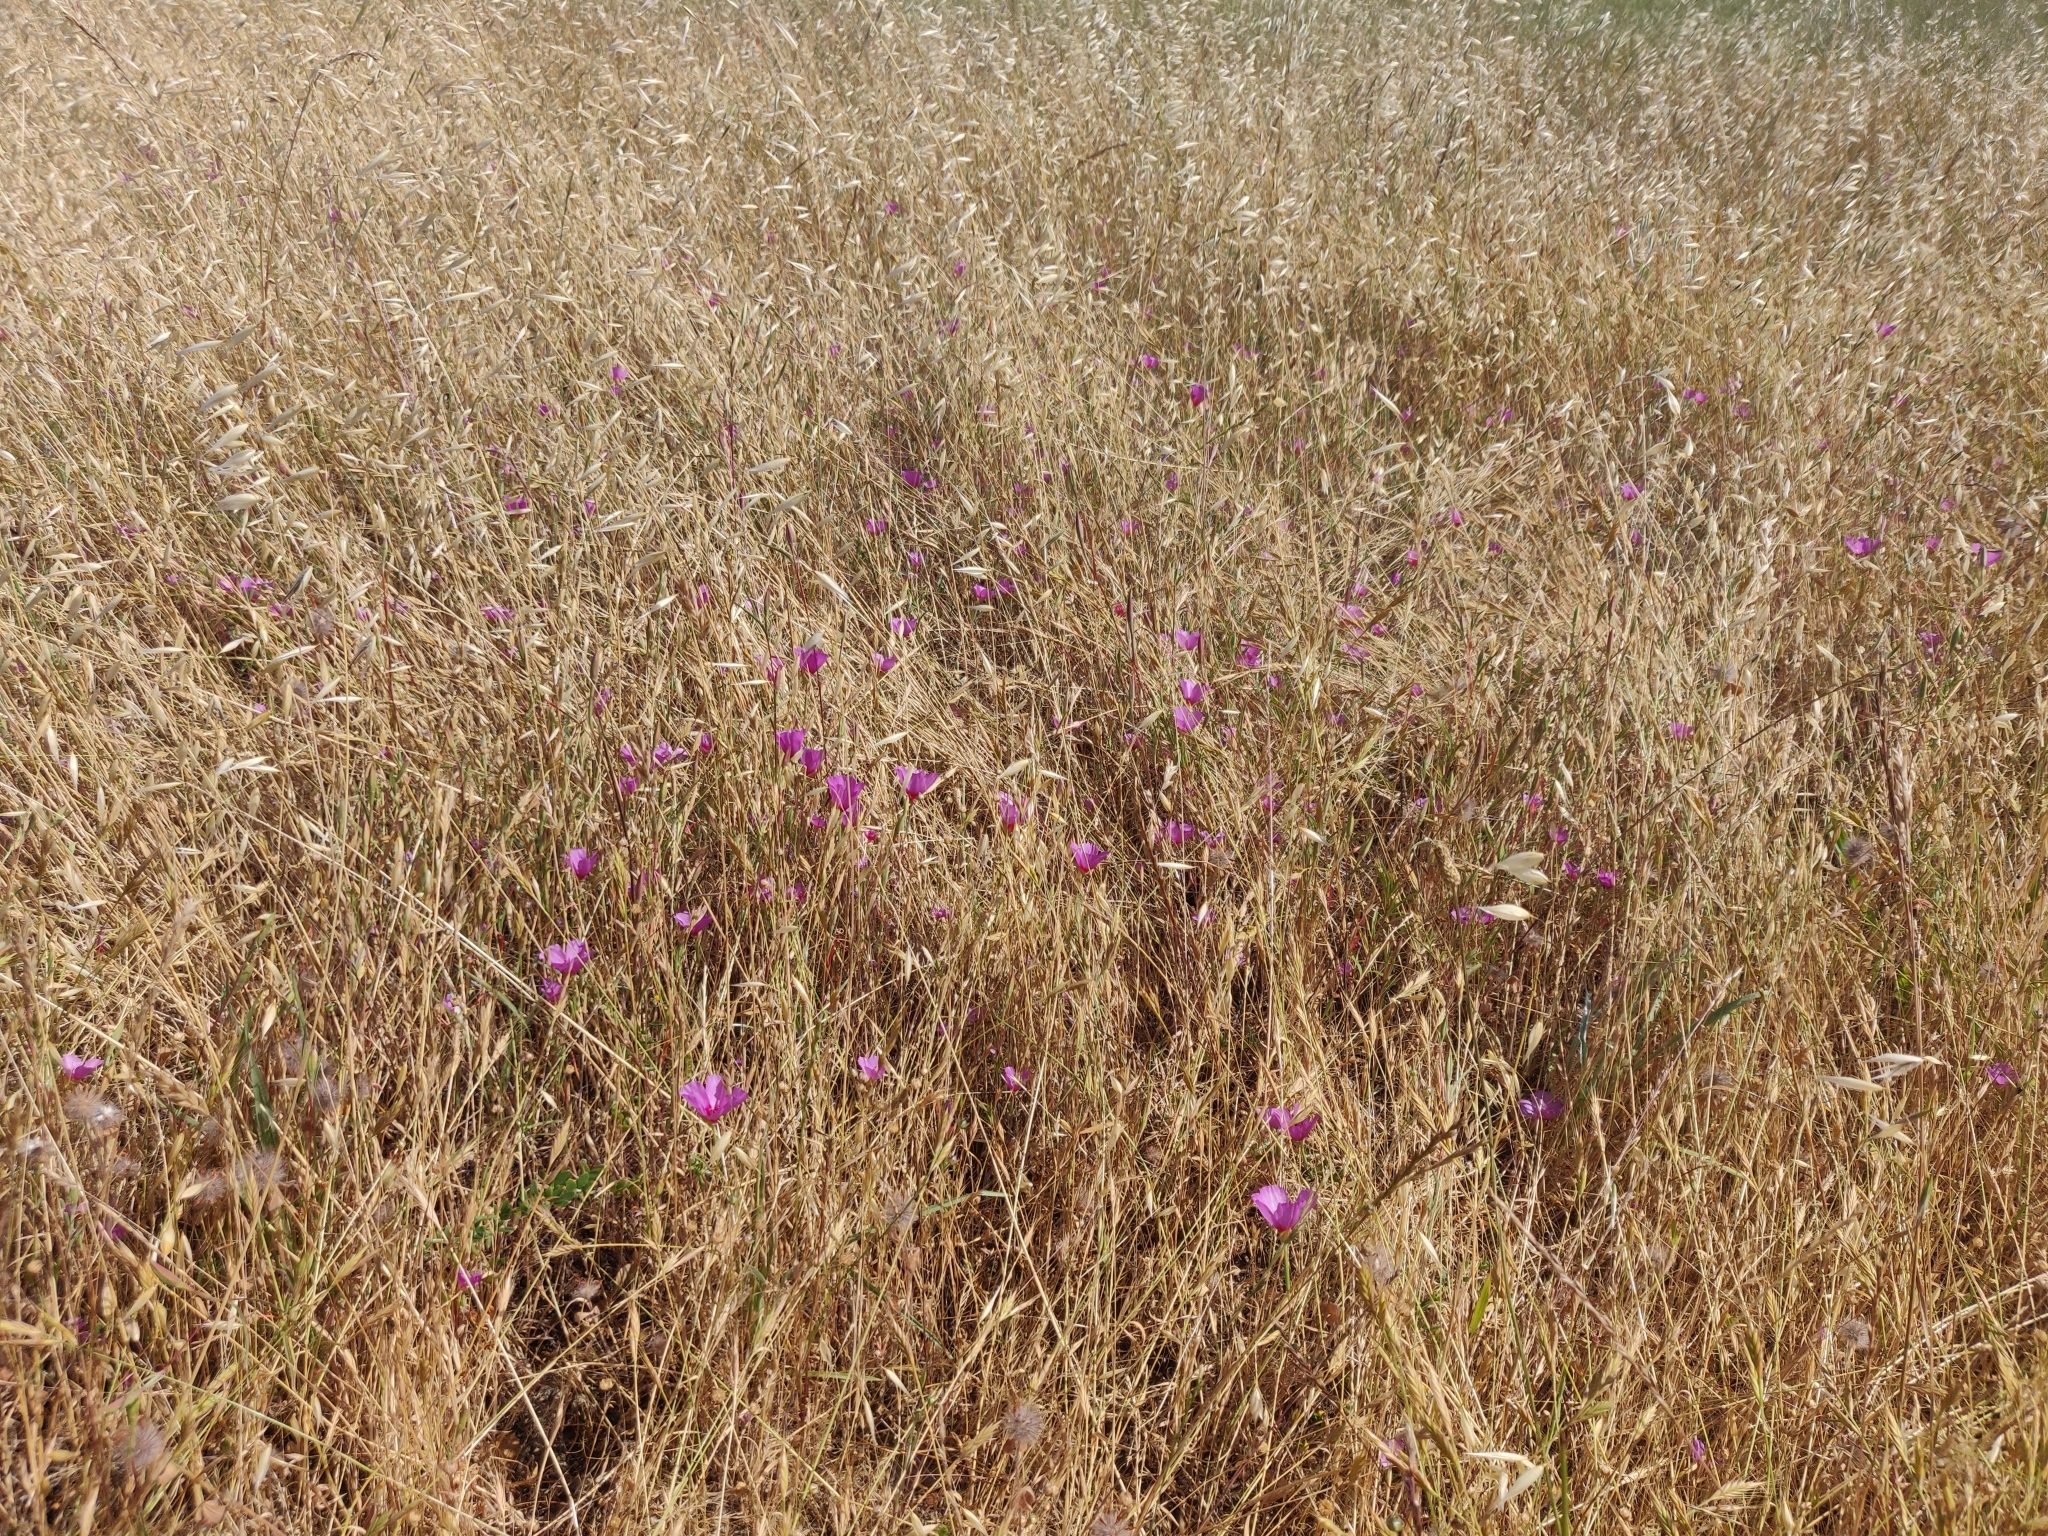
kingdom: Plantae
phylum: Tracheophyta
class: Magnoliopsida
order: Myrtales
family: Onagraceae
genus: Clarkia
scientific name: Clarkia rubicunda
